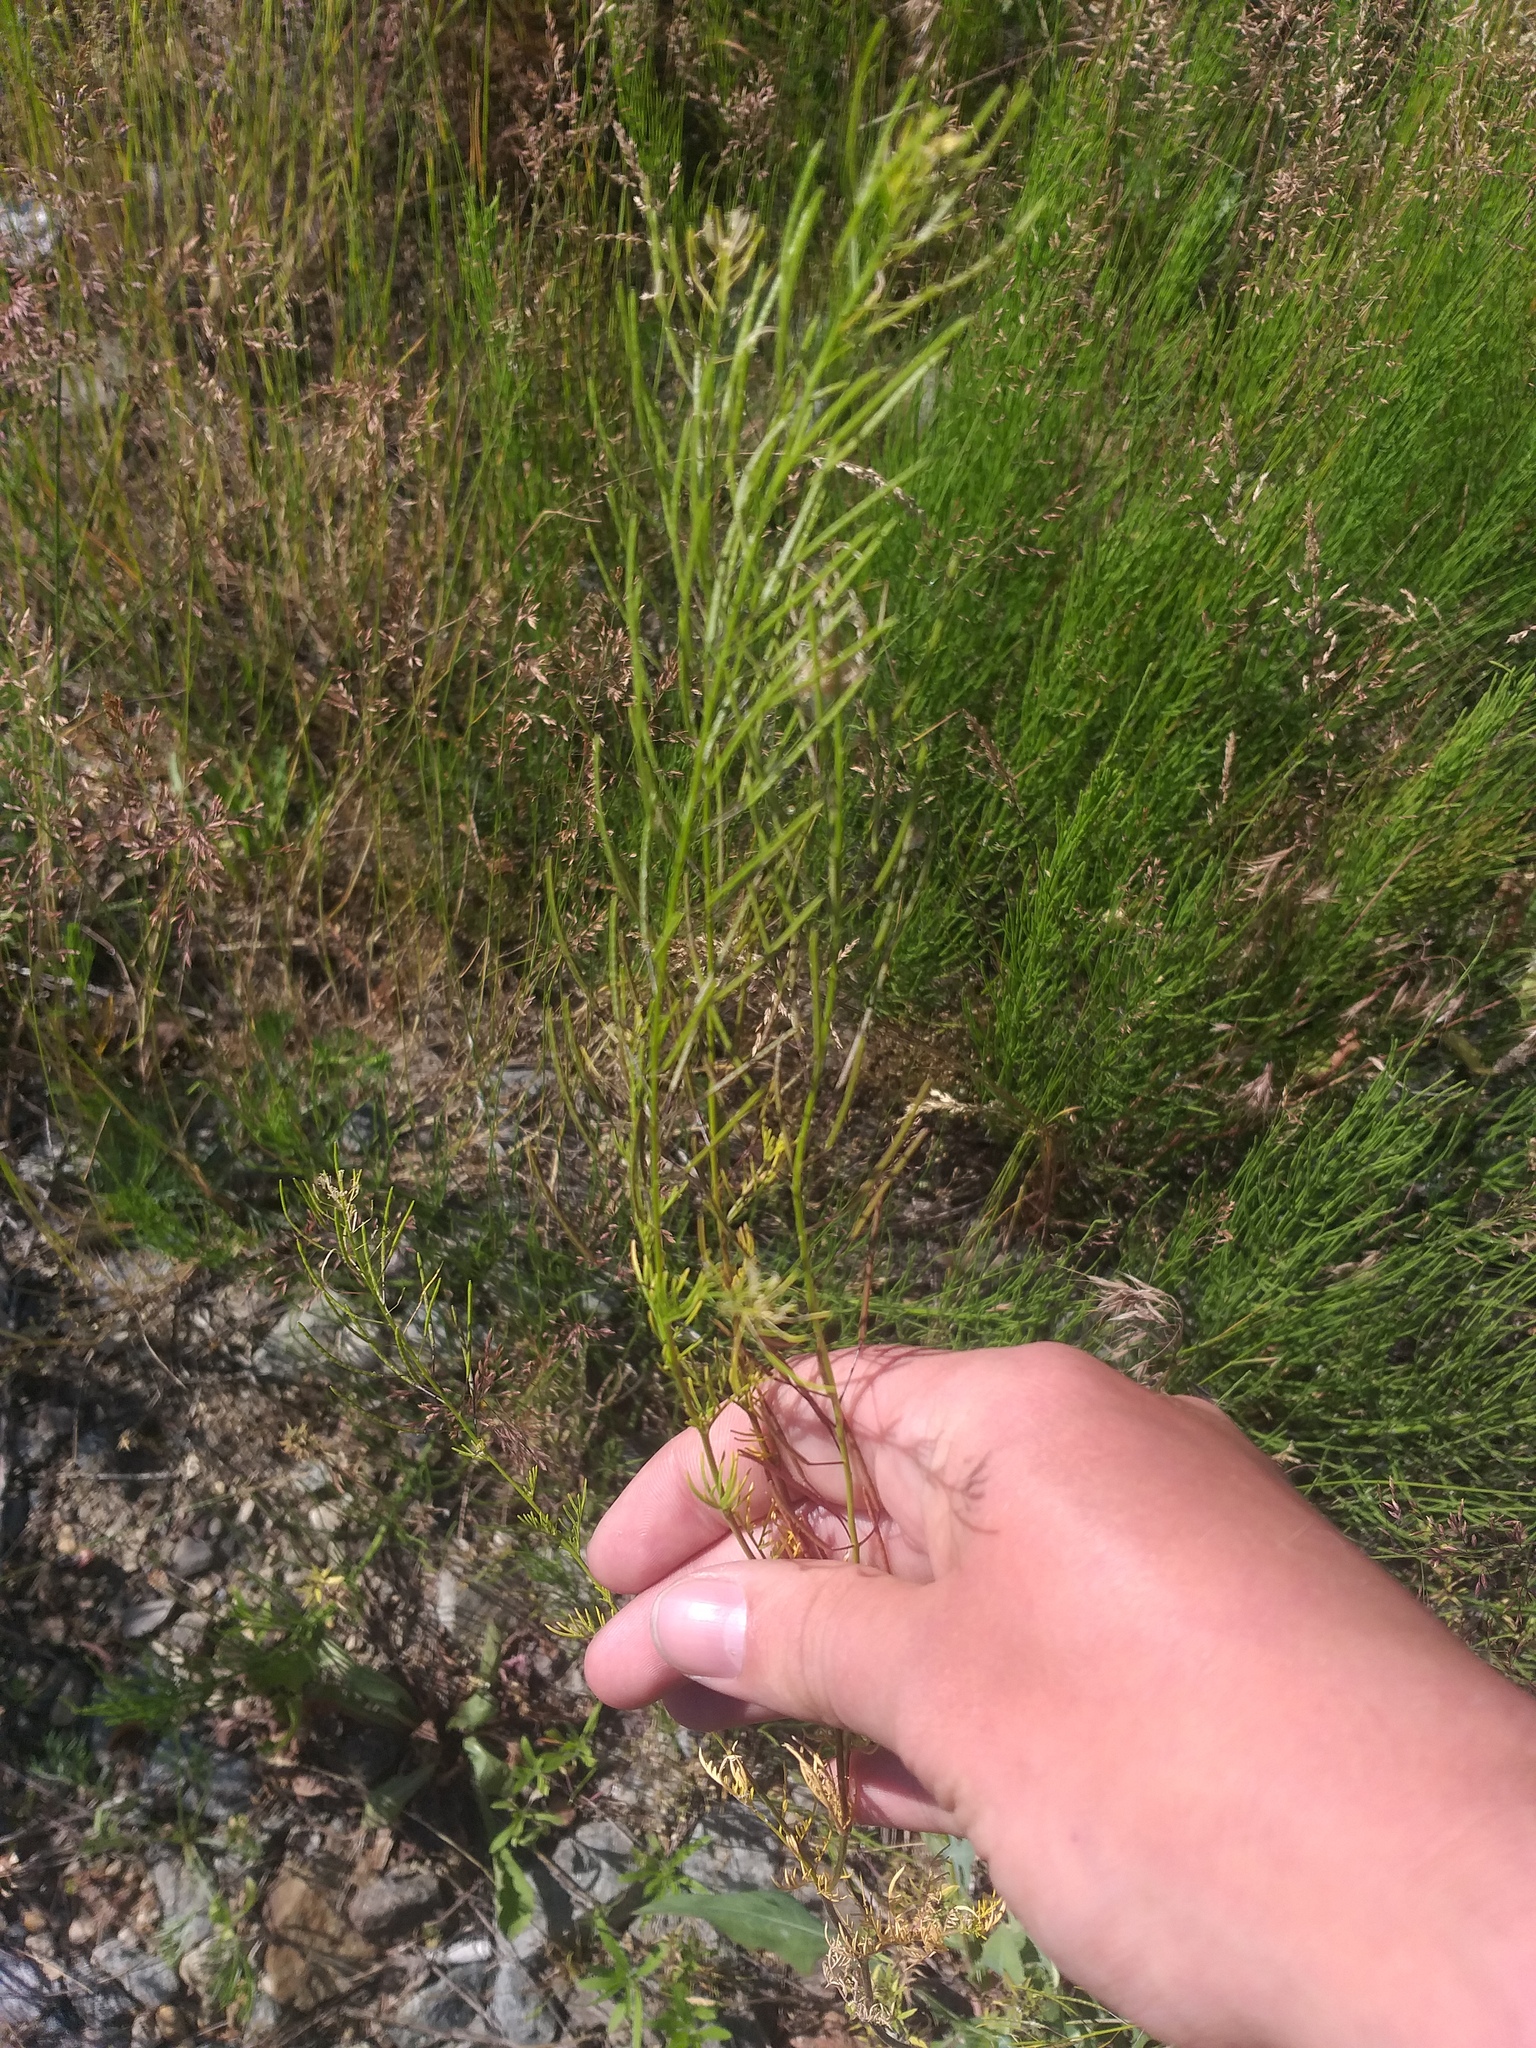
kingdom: Plantae
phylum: Tracheophyta
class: Magnoliopsida
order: Brassicales
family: Brassicaceae
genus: Descurainia
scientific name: Descurainia sophia
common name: Flixweed
